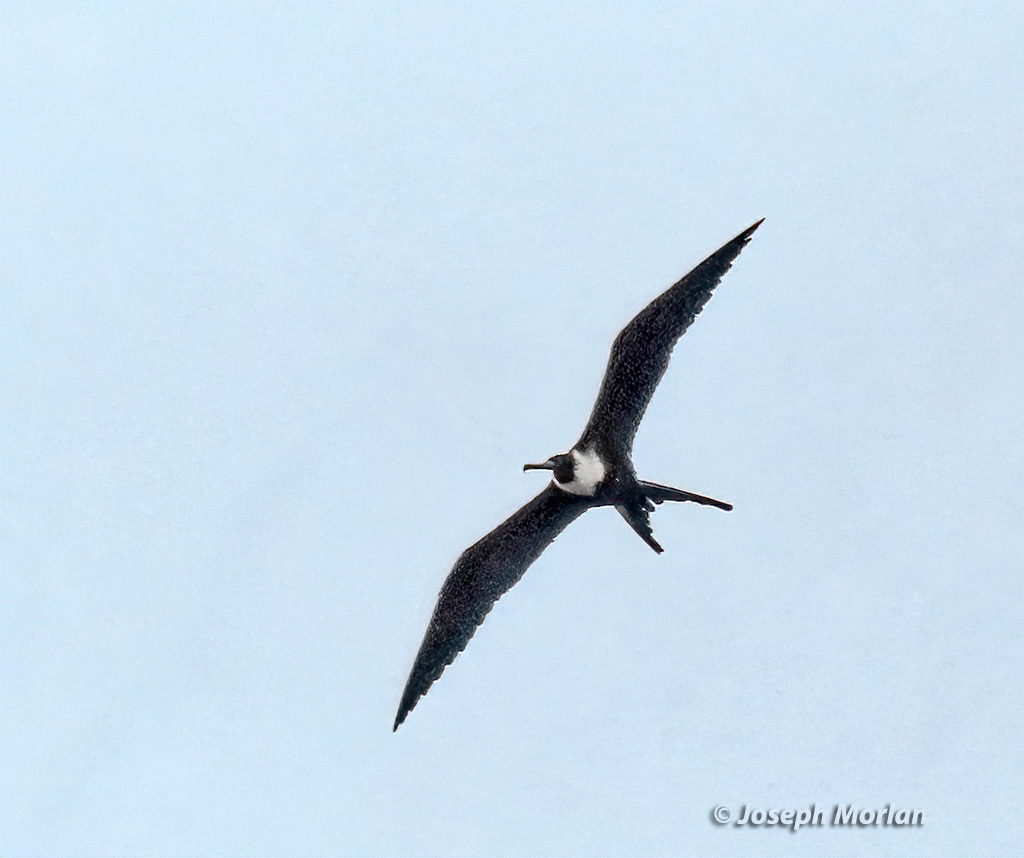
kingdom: Animalia
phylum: Chordata
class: Aves
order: Suliformes
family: Fregatidae
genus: Fregata
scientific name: Fregata magnificens
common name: Magnificent frigatebird
